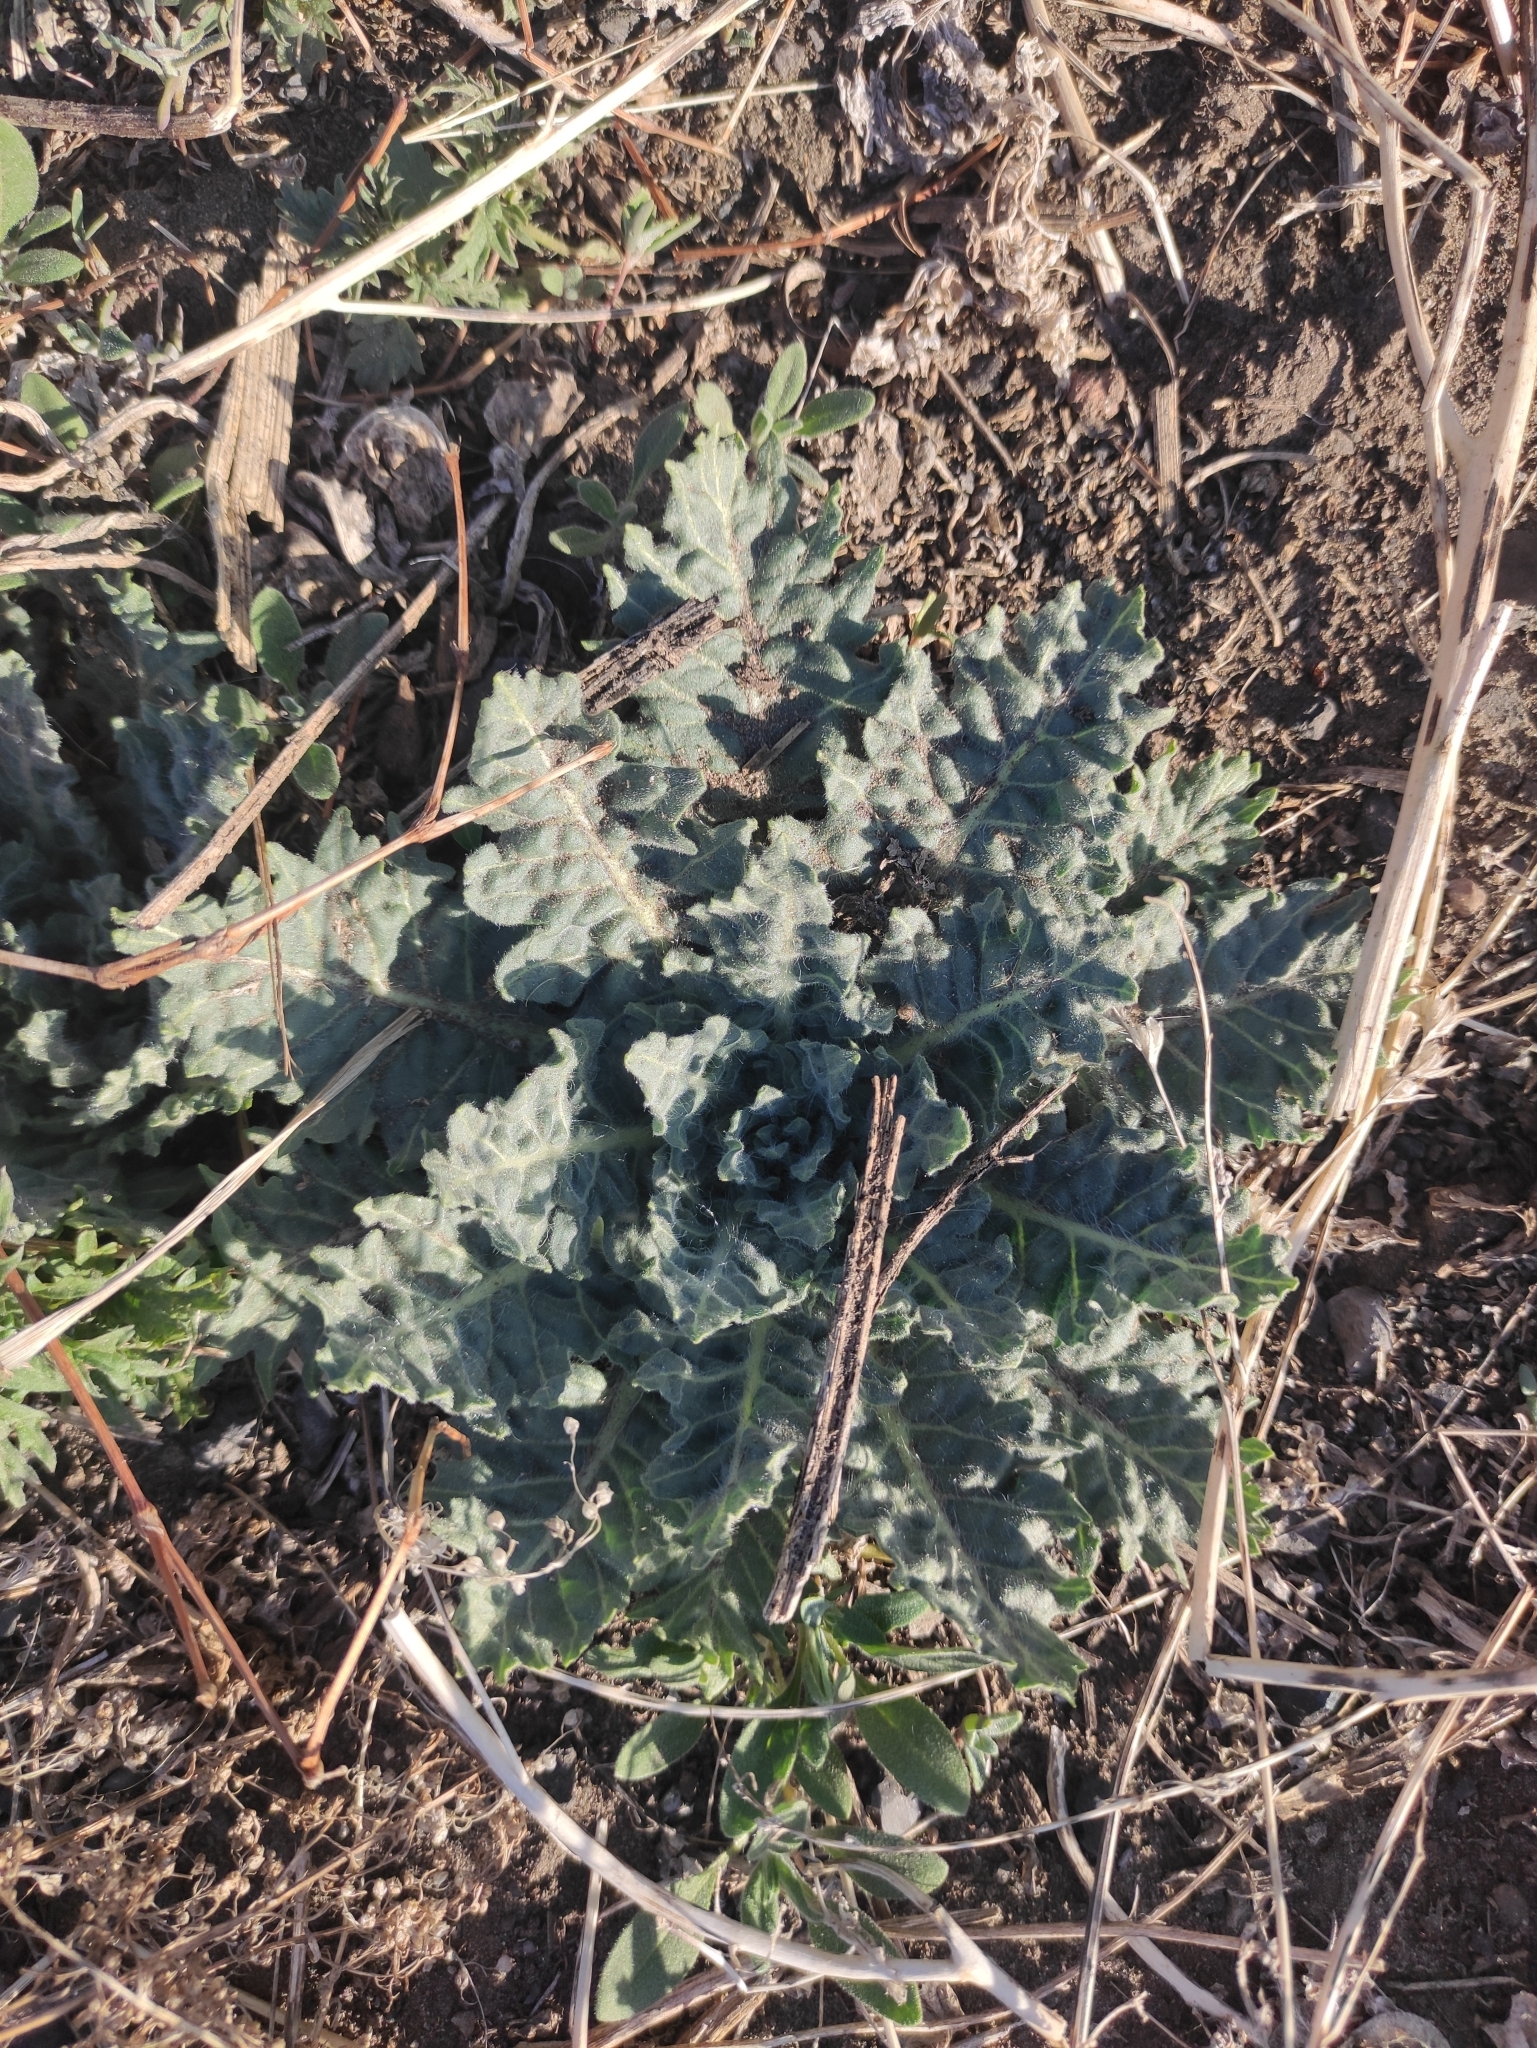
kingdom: Plantae
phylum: Tracheophyta
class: Magnoliopsida
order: Solanales
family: Solanaceae
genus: Hyoscyamus
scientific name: Hyoscyamus niger
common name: Henbane
